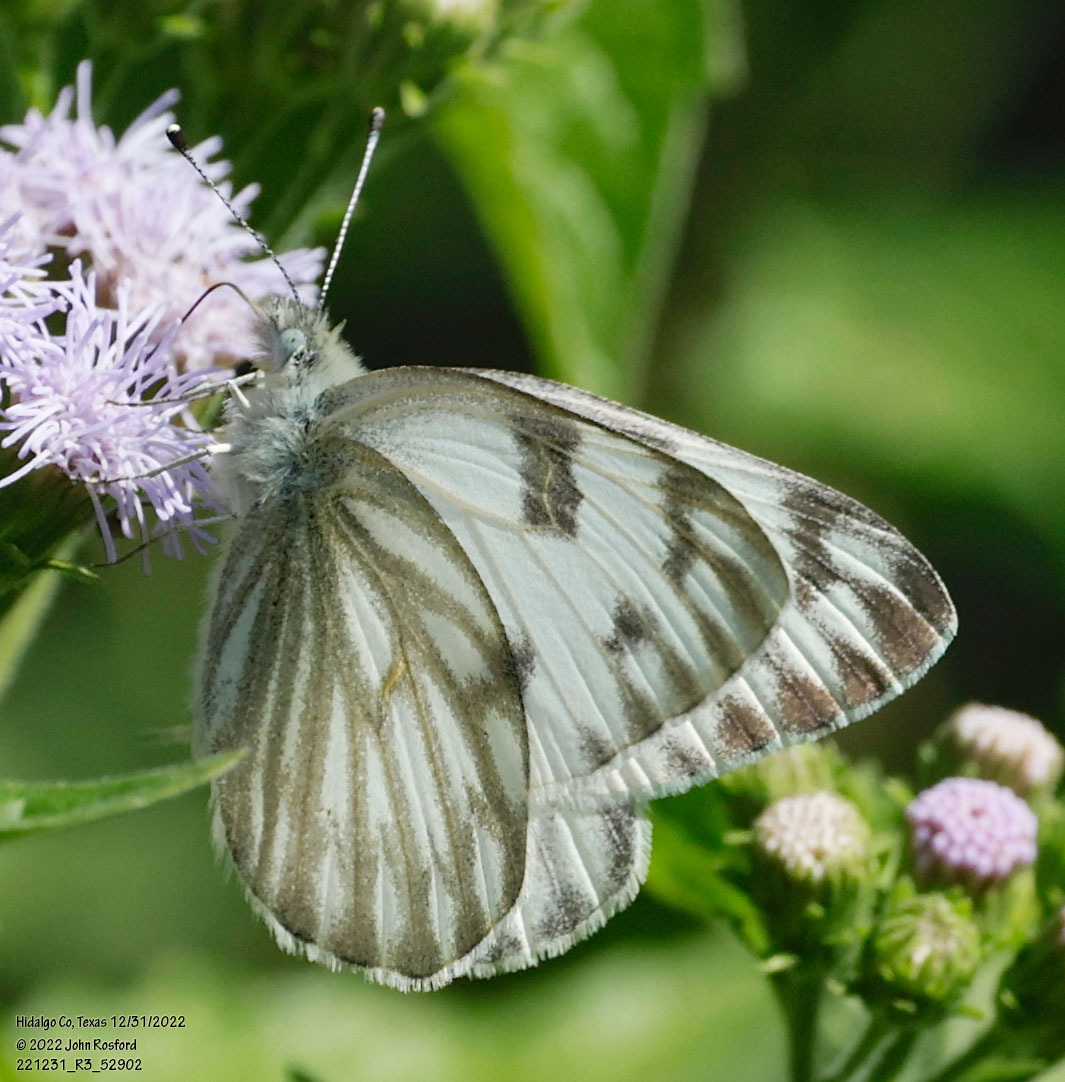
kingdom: Animalia
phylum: Arthropoda
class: Insecta
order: Lepidoptera
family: Pieridae
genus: Pontia
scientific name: Pontia protodice
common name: Checkered white
